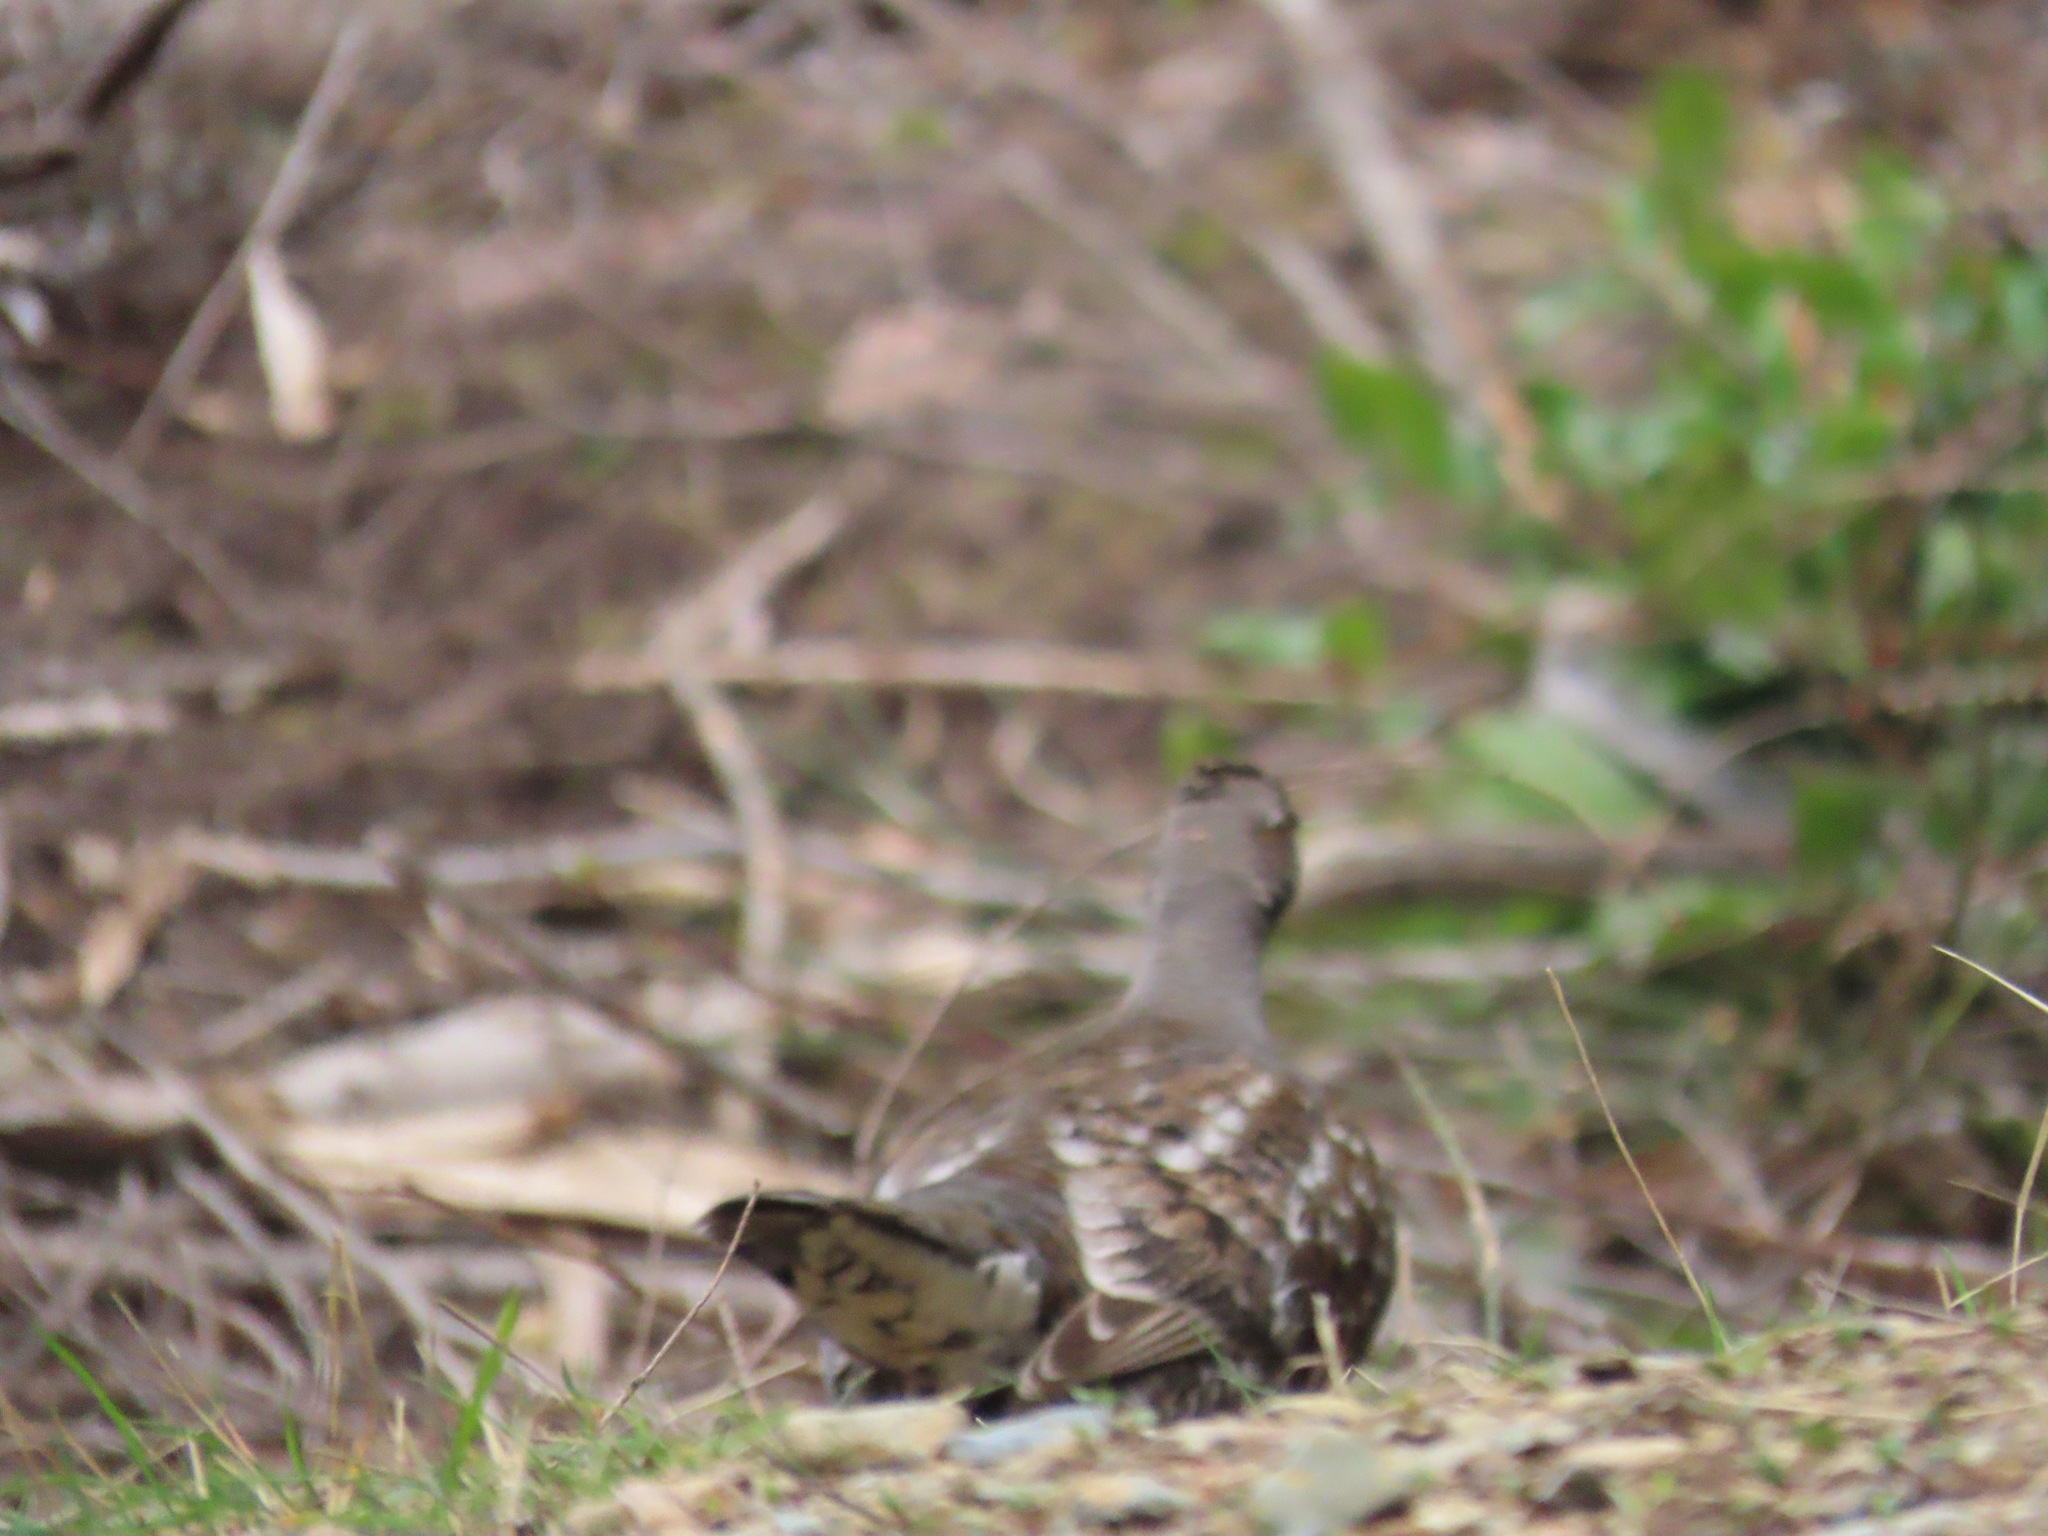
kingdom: Animalia
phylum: Chordata
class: Aves
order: Galliformes
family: Phasianidae
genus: Dendragapus
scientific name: Dendragapus fuliginosus
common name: Sooty grouse
